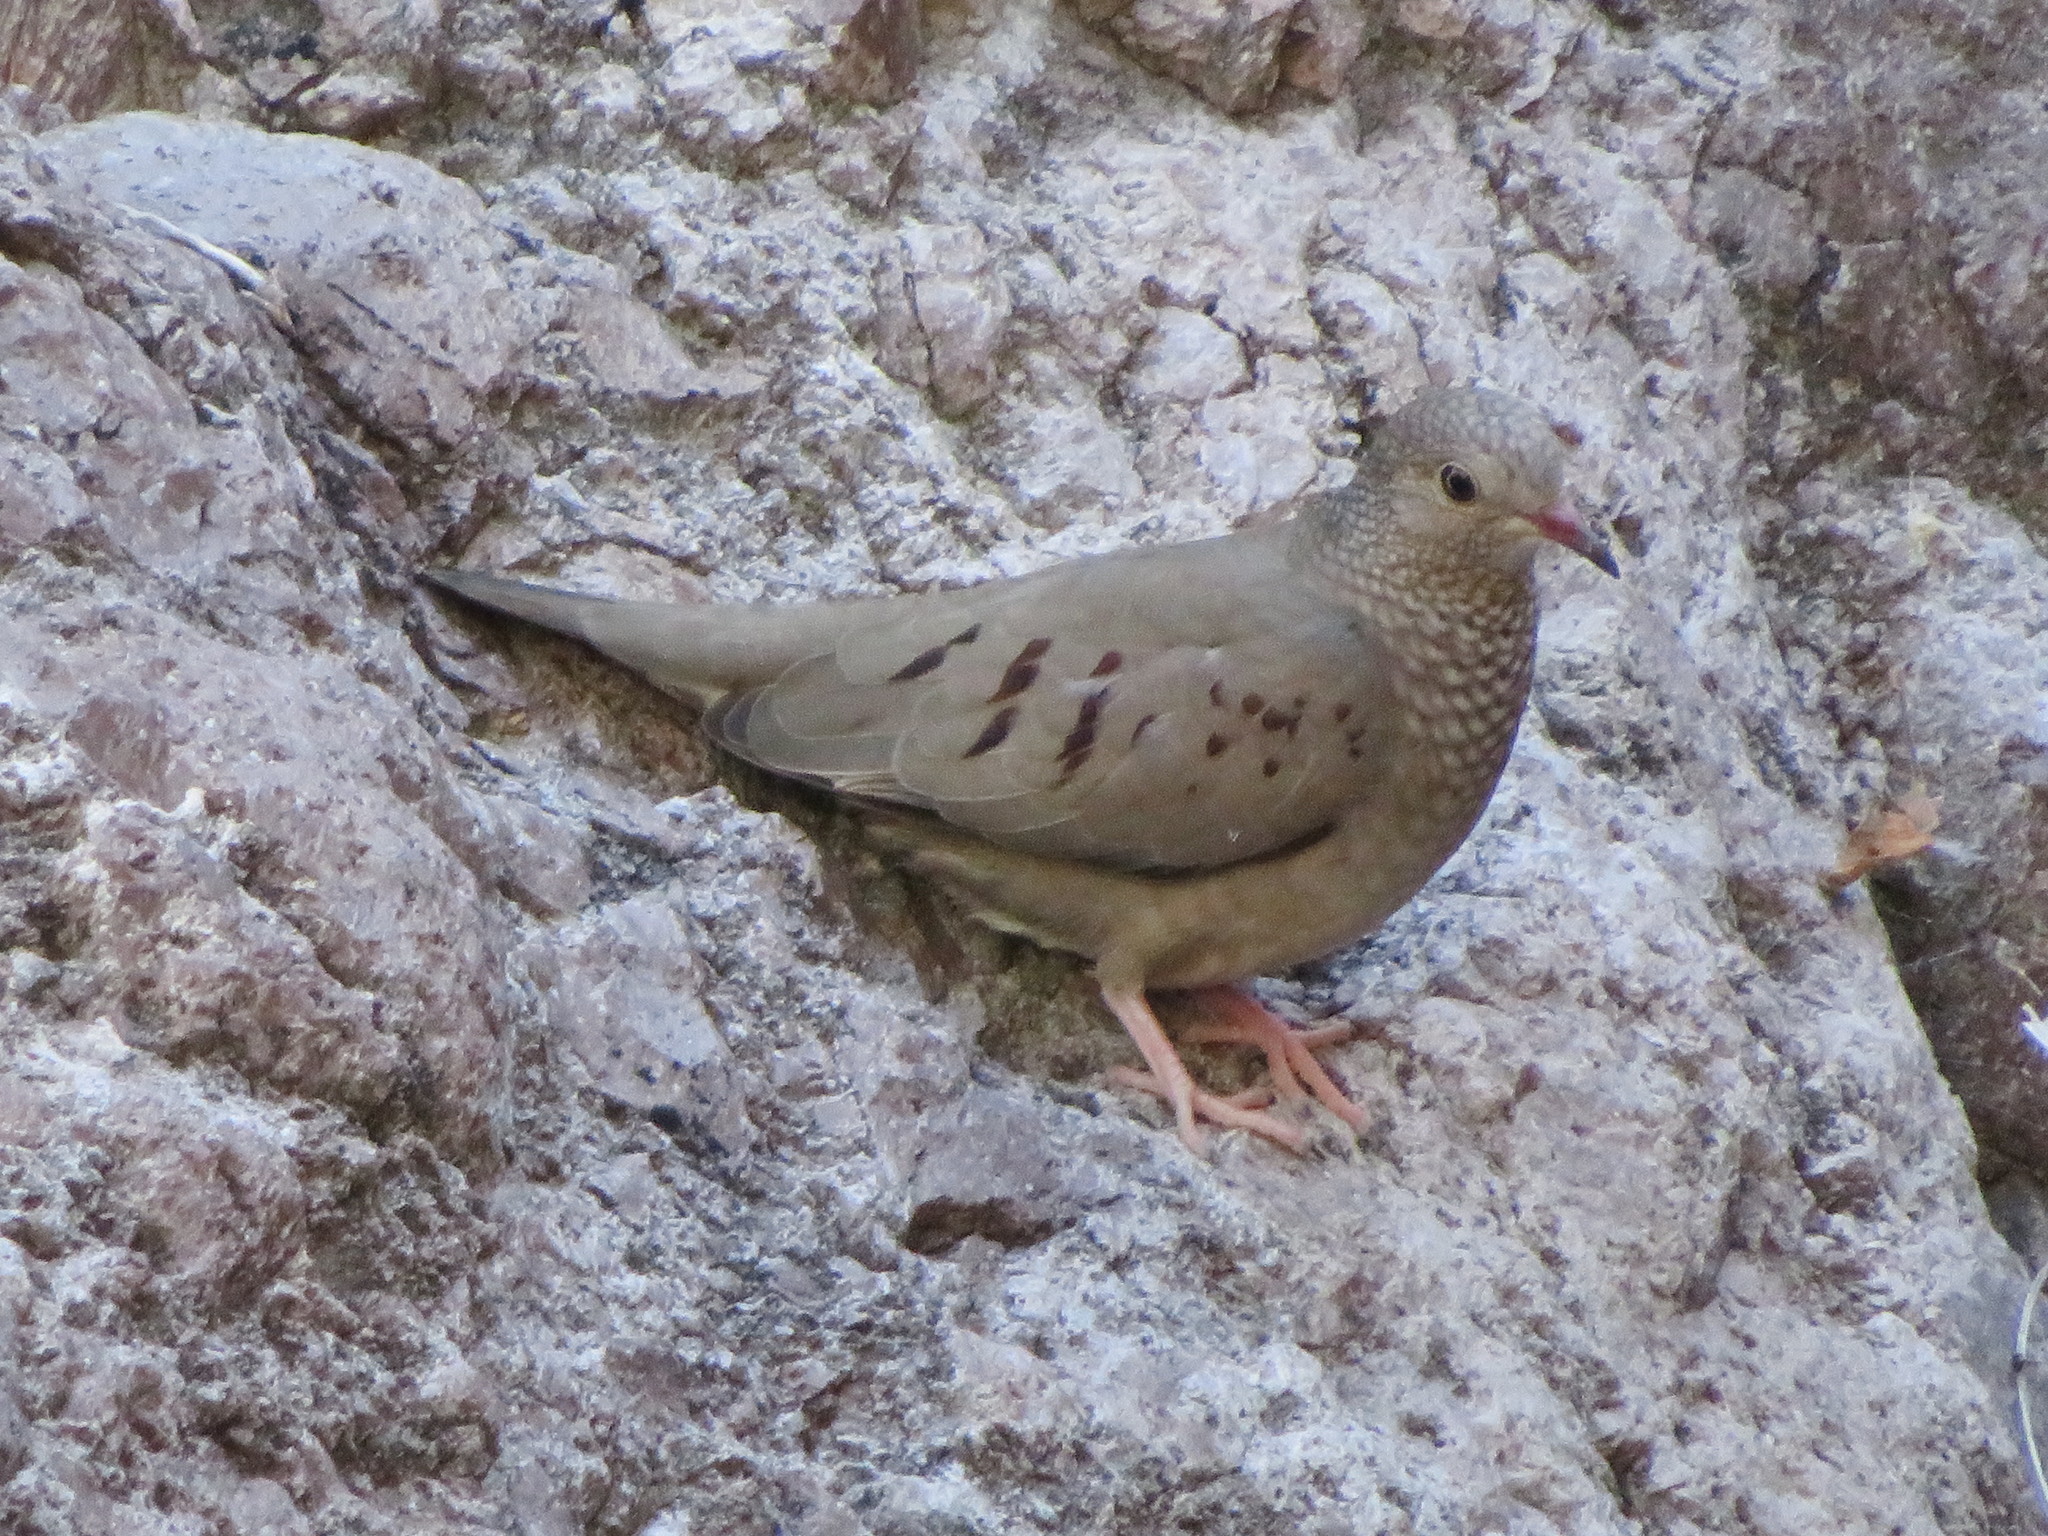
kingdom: Animalia
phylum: Chordata
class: Aves
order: Columbiformes
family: Columbidae
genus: Columbina
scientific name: Columbina passerina
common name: Common ground-dove
